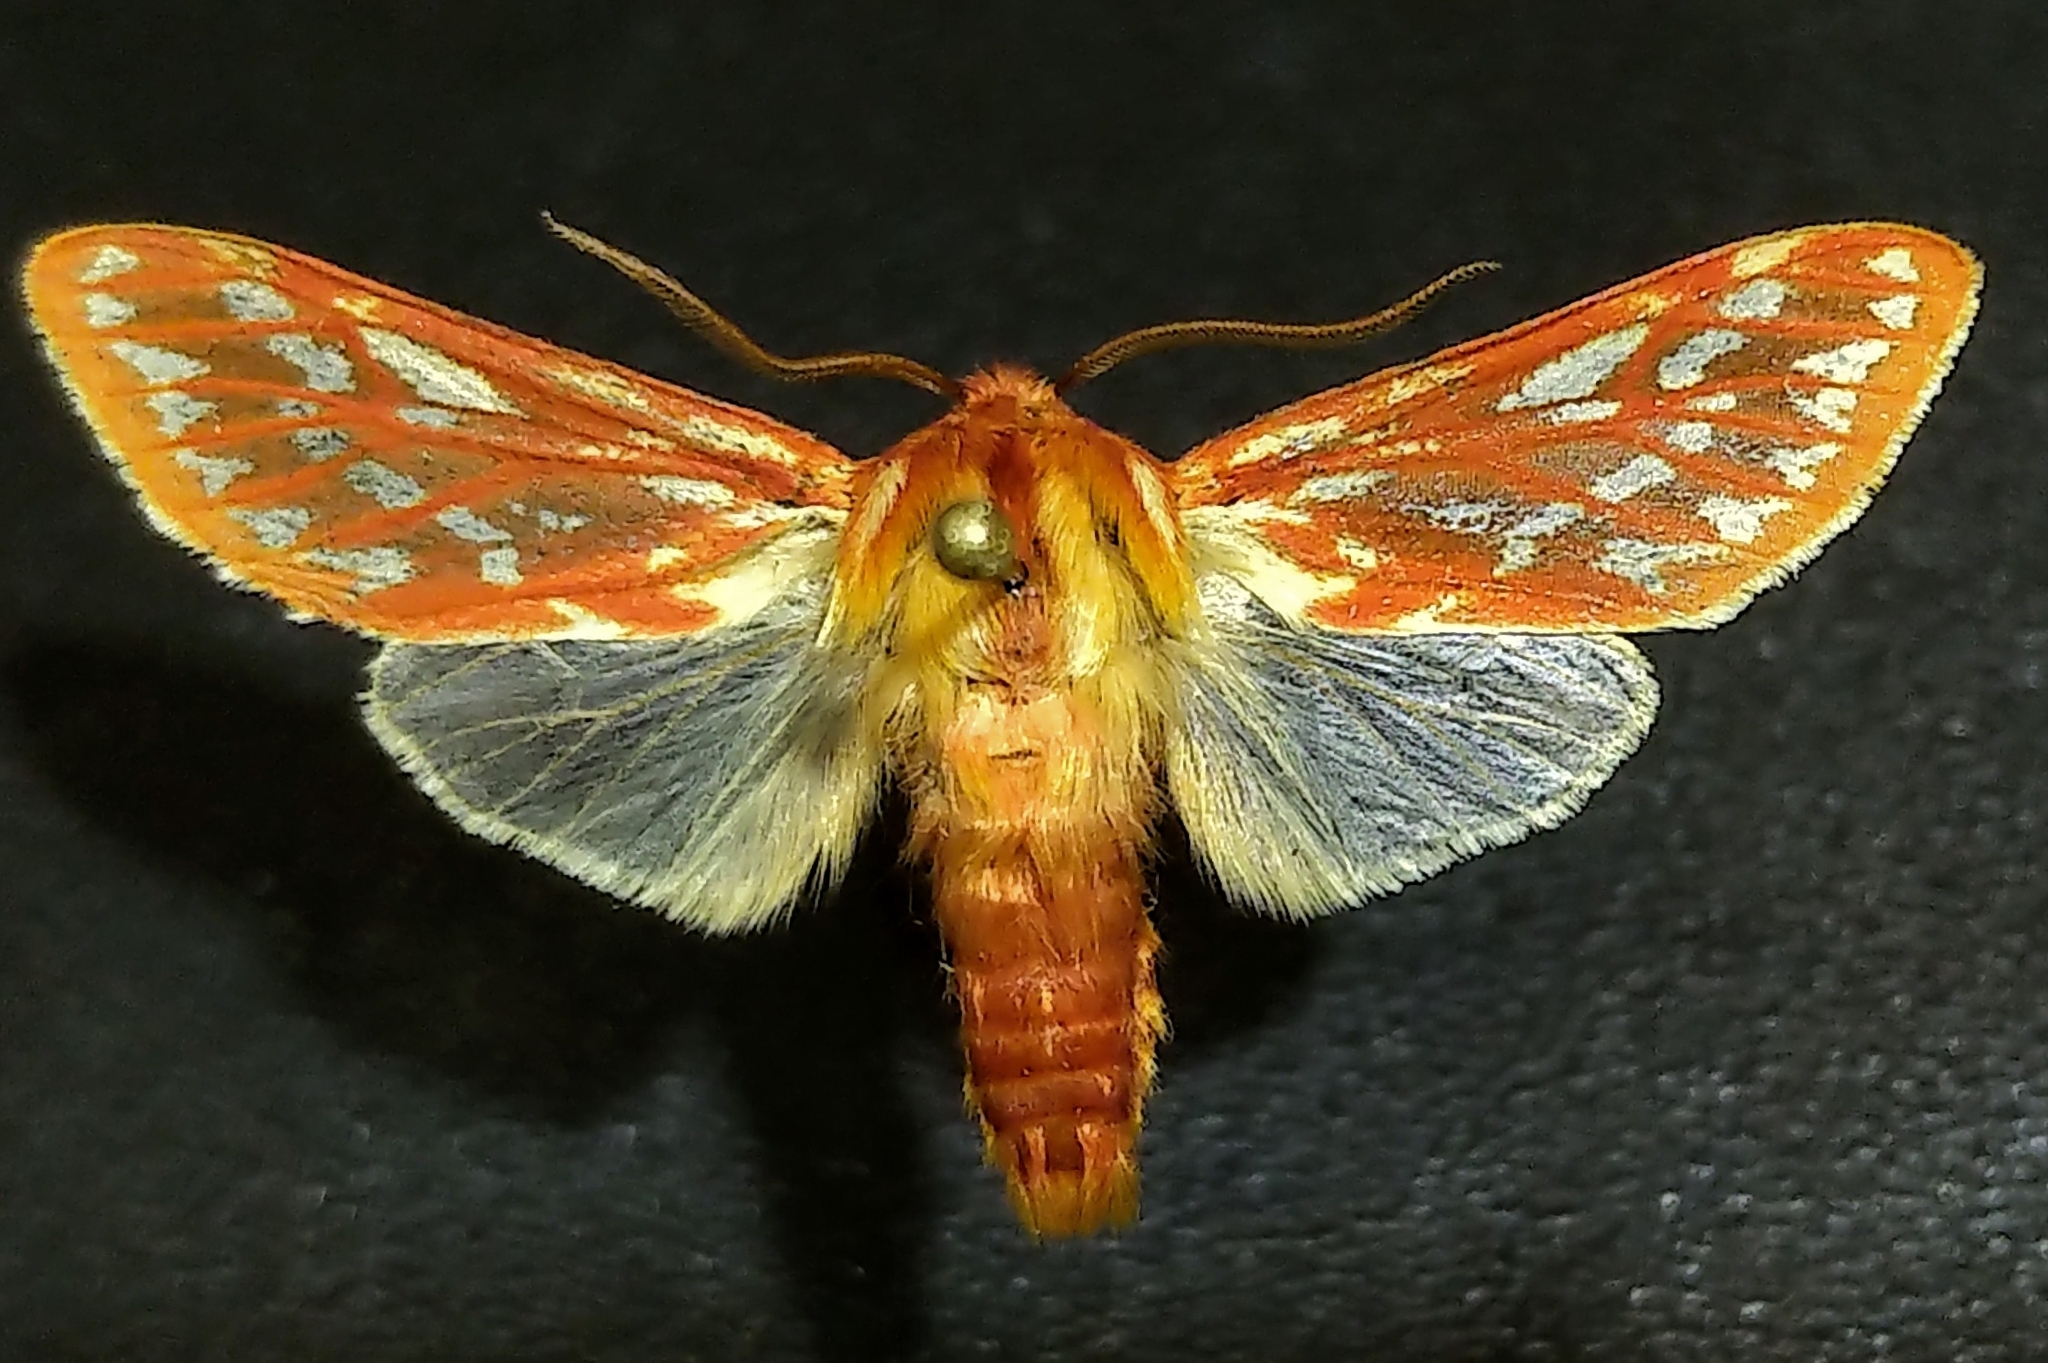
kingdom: Animalia
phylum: Arthropoda
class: Insecta
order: Lepidoptera
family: Erebidae
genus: Lophocampa
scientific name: Lophocampa roseata
